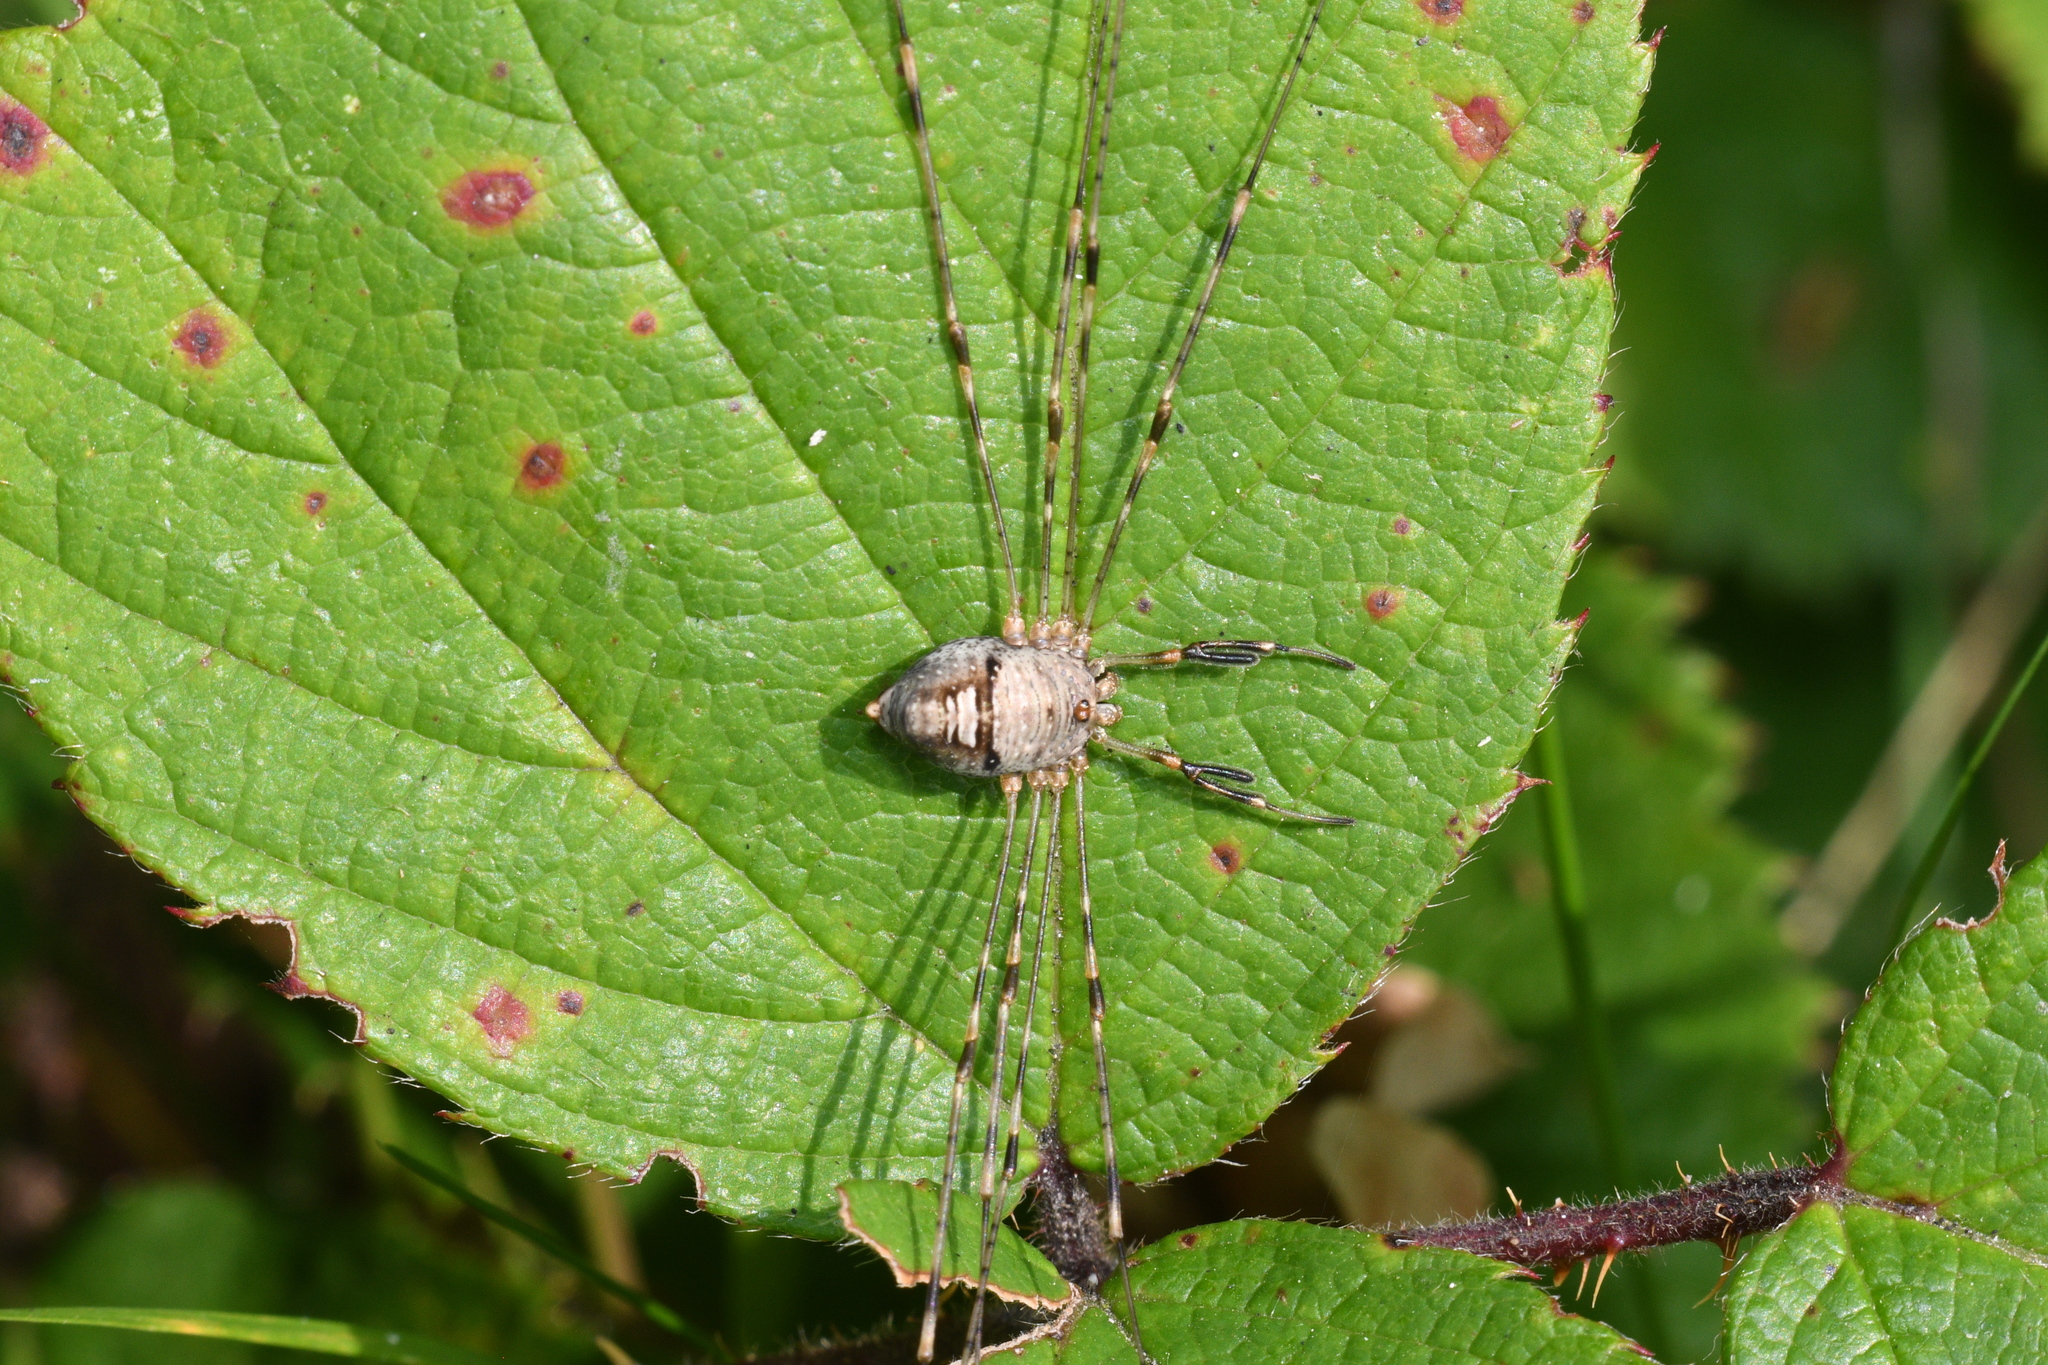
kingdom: Animalia
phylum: Arthropoda
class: Arachnida
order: Opiliones
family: Phalangiidae
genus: Dicranopalpus
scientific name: Dicranopalpus ramosus
